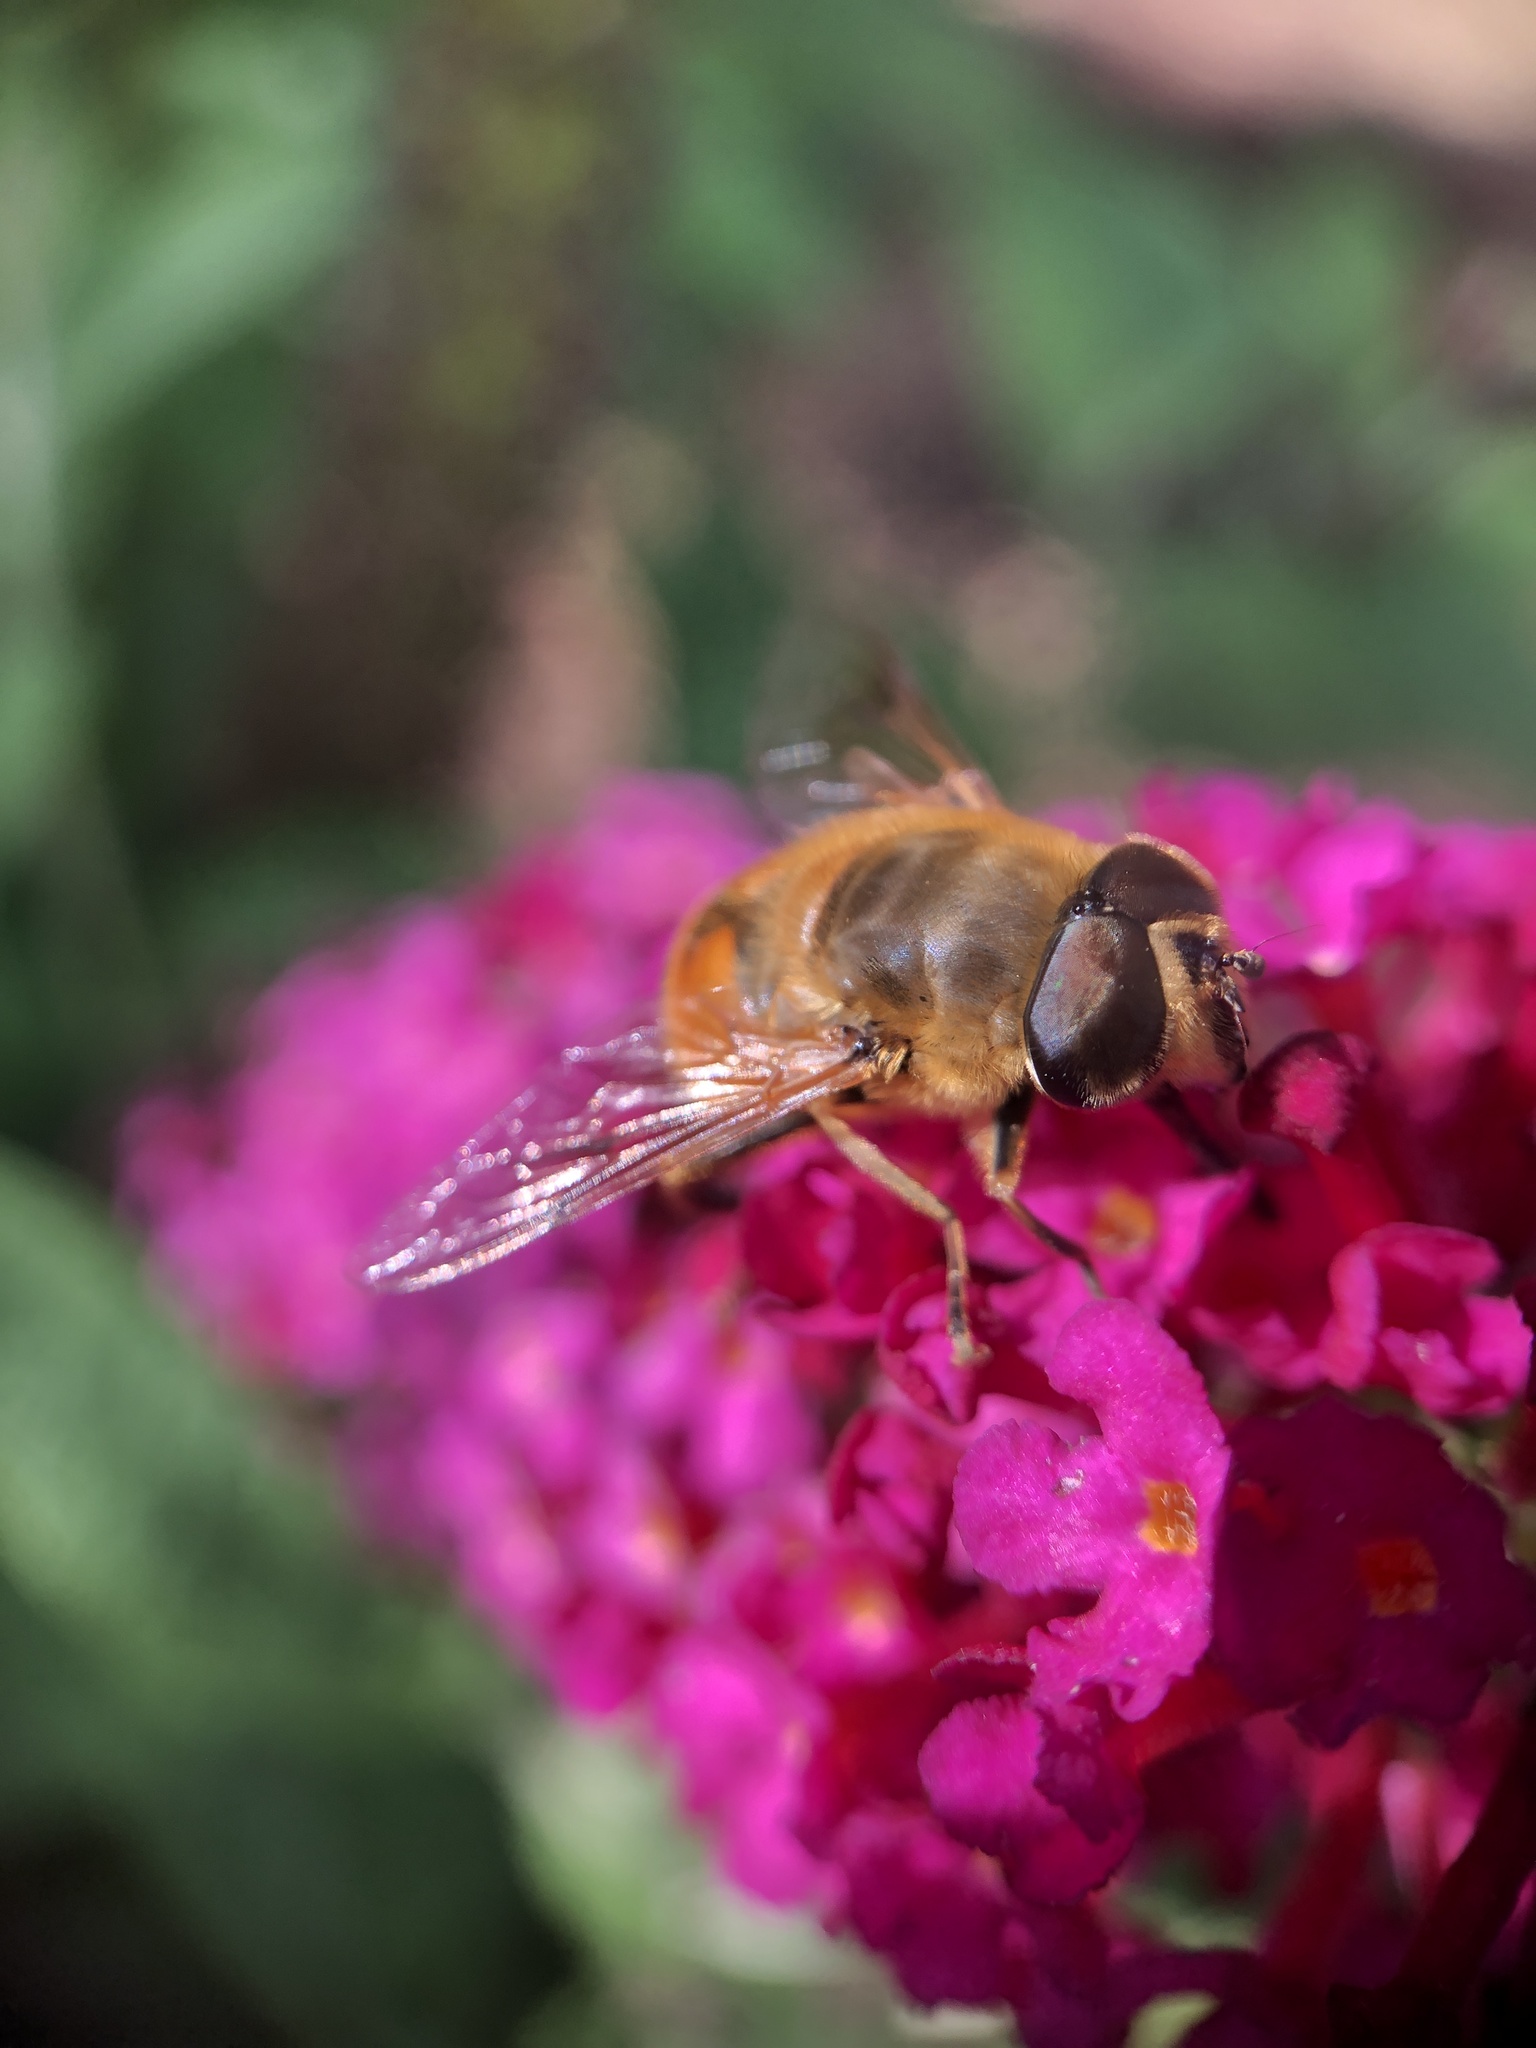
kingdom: Animalia
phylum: Arthropoda
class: Insecta
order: Diptera
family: Syrphidae
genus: Eristalis
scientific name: Eristalis tenax
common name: Drone fly
